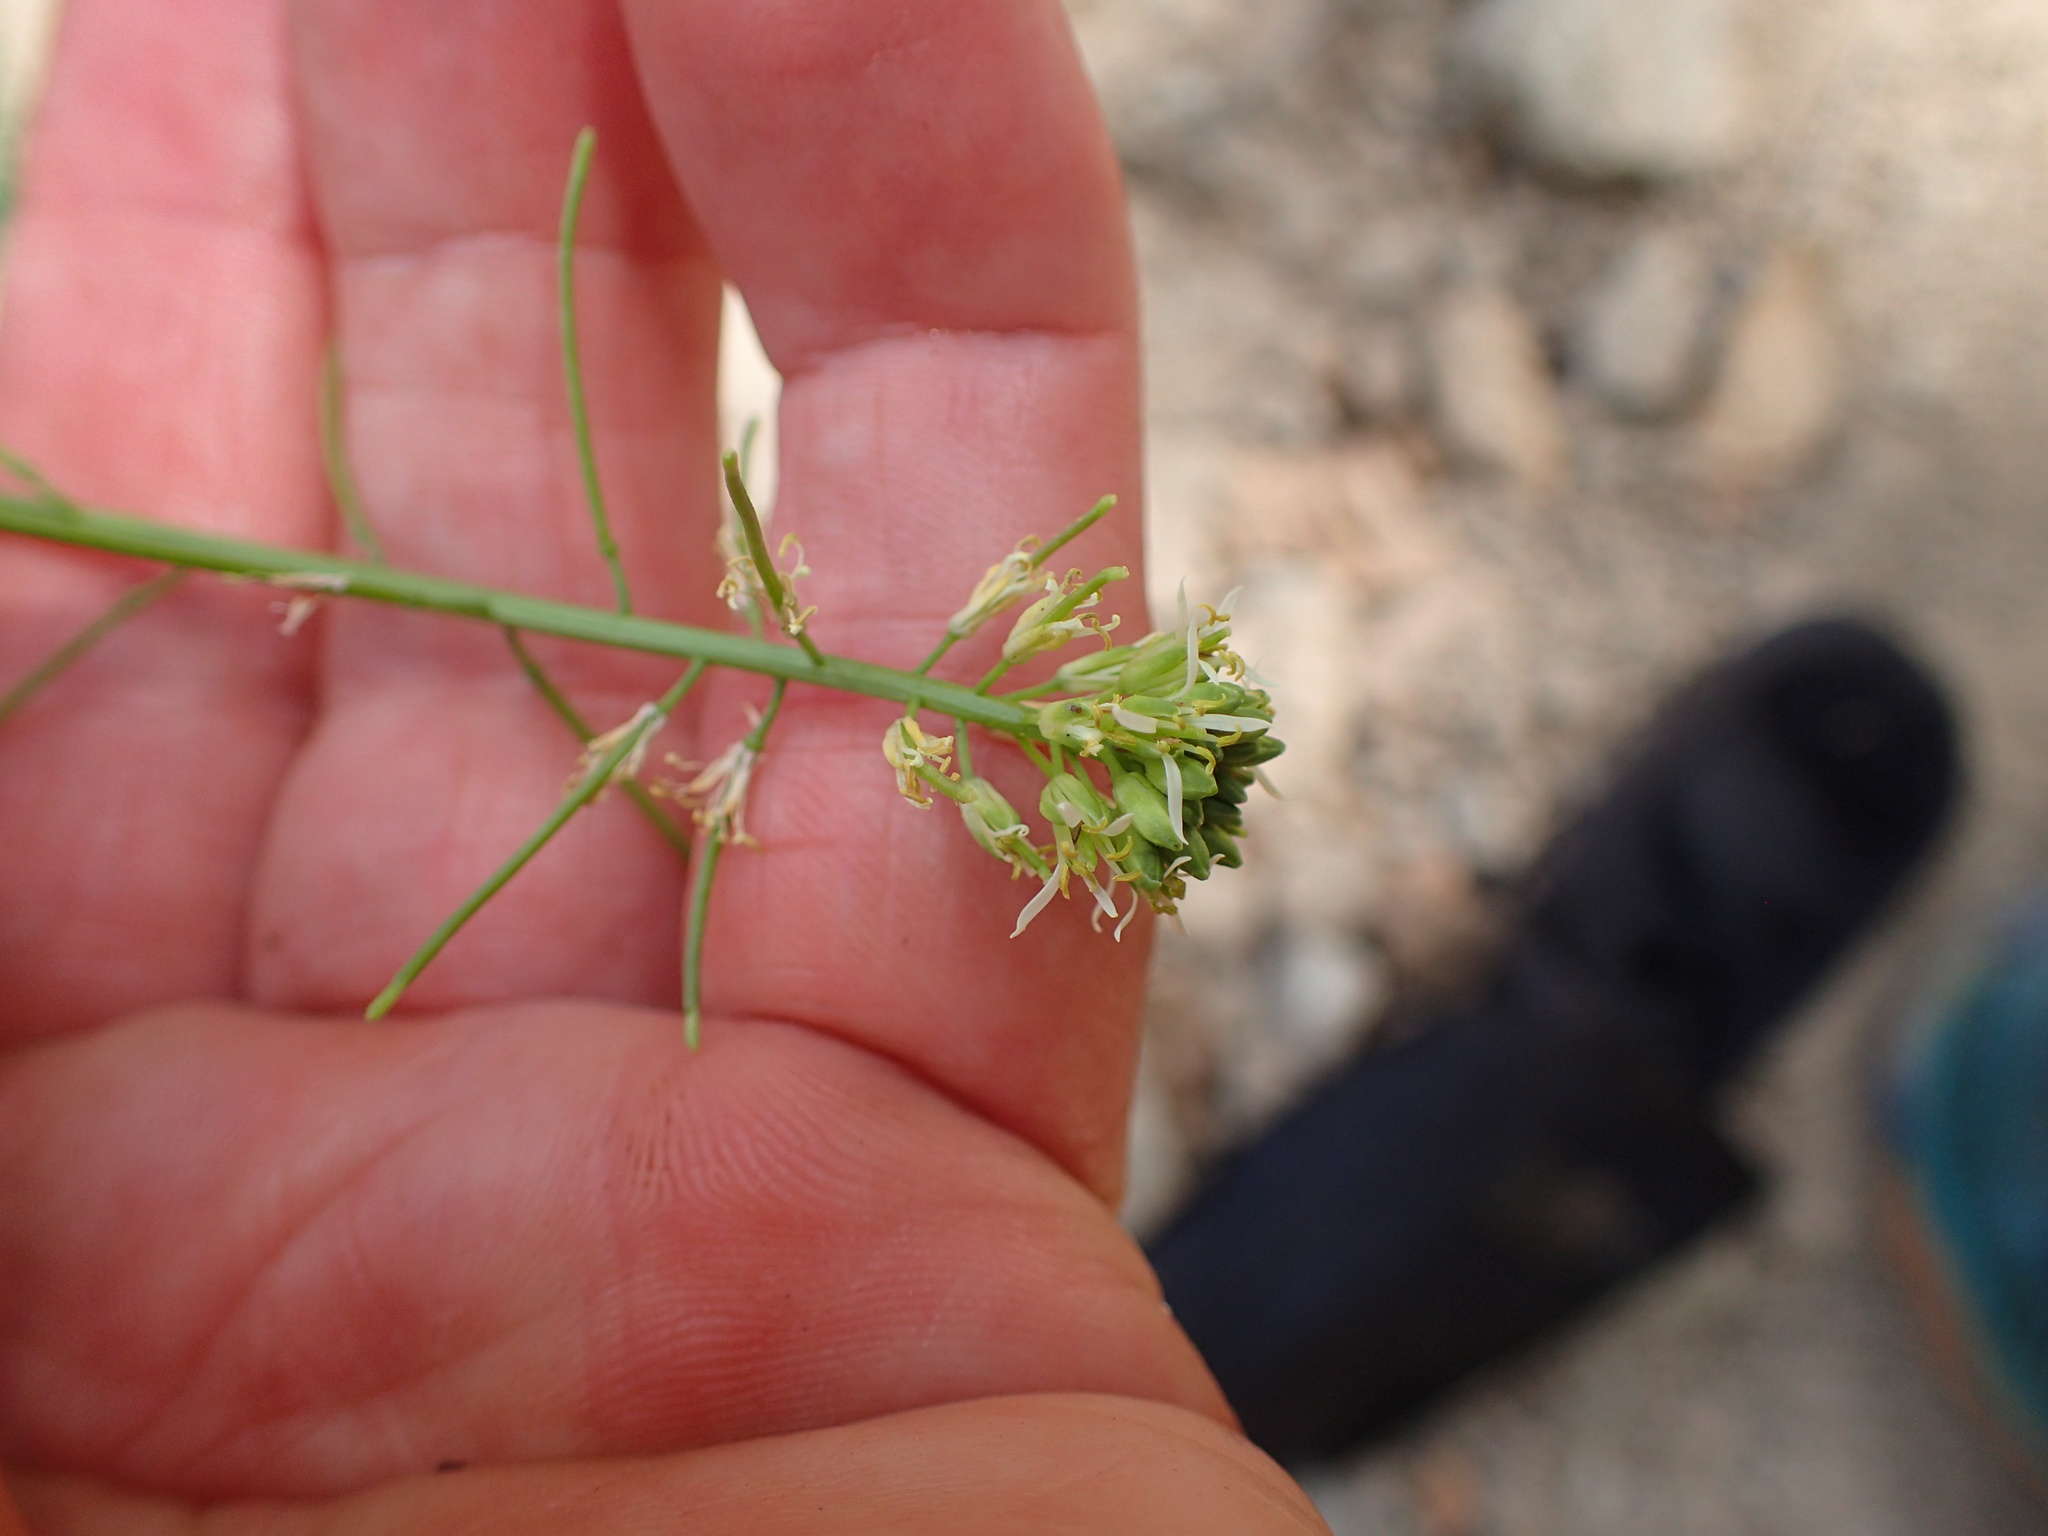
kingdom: Plantae
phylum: Tracheophyta
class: Magnoliopsida
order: Brassicales
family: Brassicaceae
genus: Streptanthus
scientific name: Streptanthus lasiophyllus
